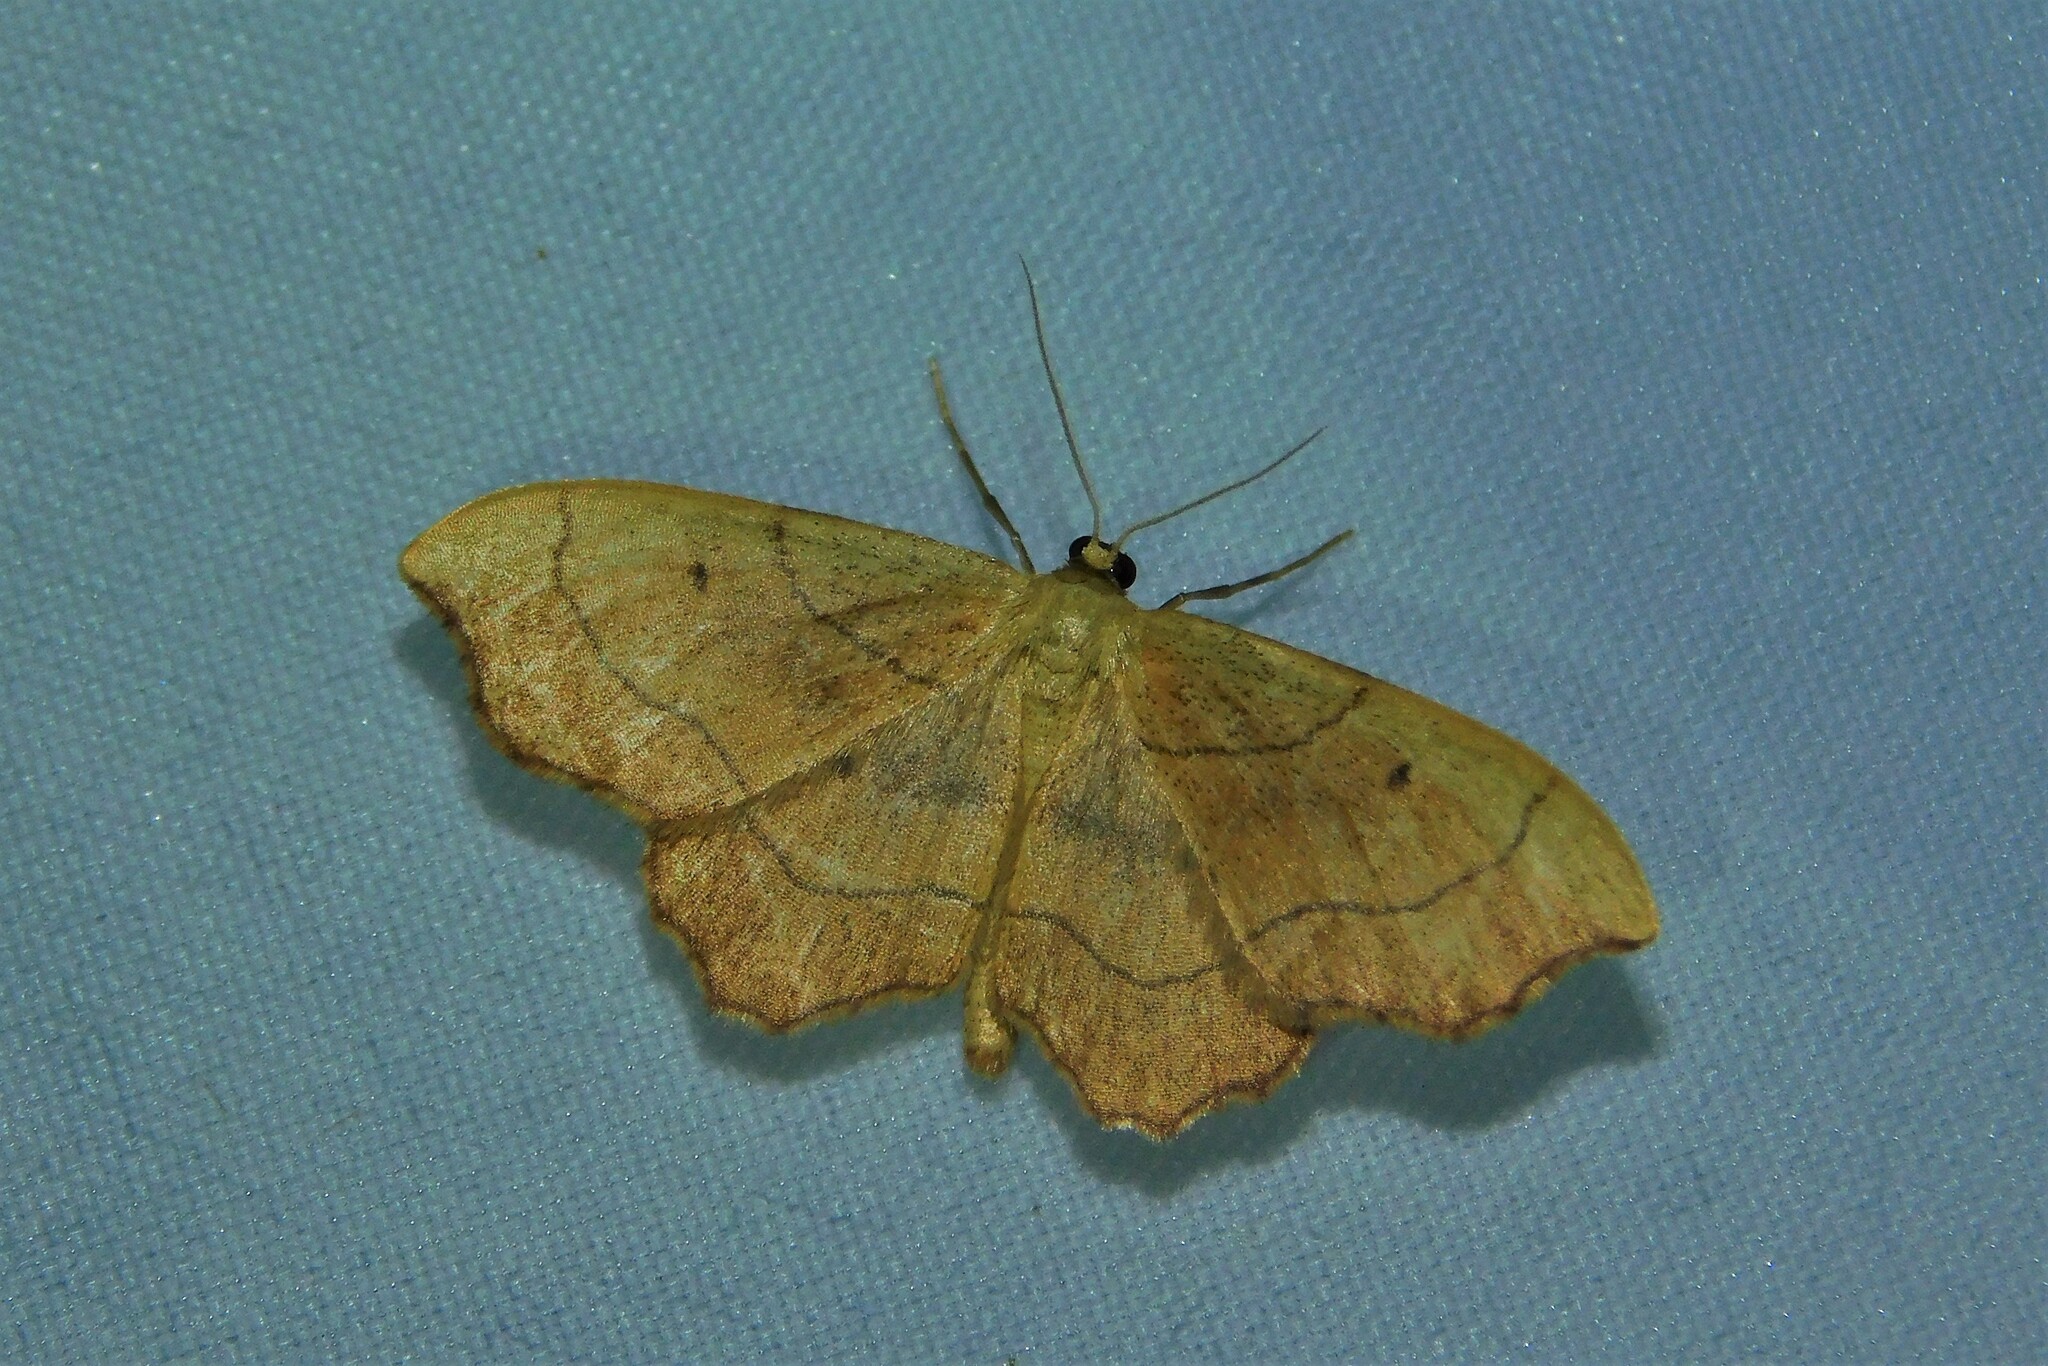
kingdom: Animalia
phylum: Arthropoda
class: Insecta
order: Lepidoptera
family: Geometridae
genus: Idaea
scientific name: Idaea emarginata
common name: Small scallop
